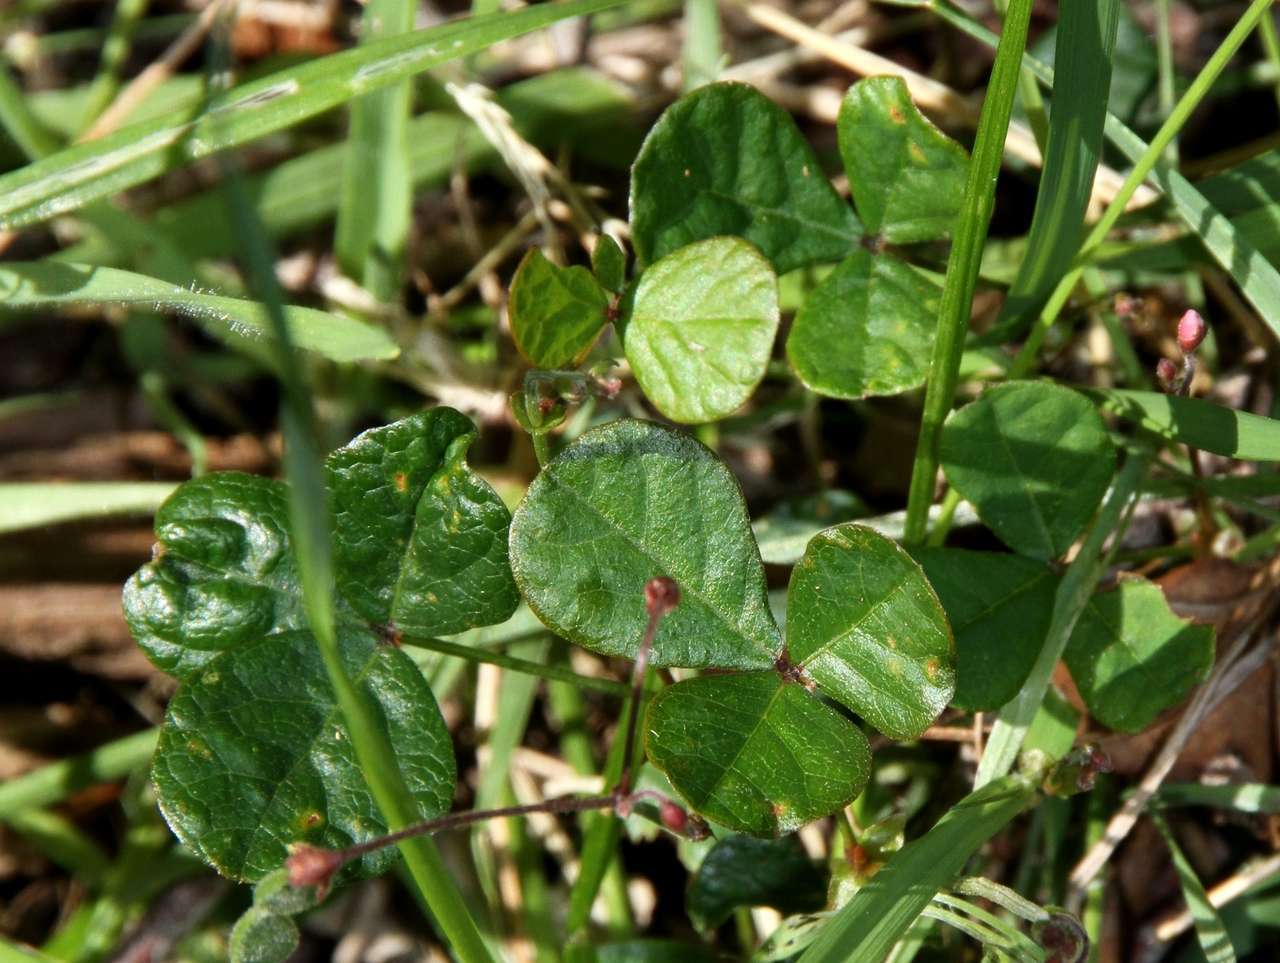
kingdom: Plantae
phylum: Tracheophyta
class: Magnoliopsida
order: Fabales
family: Fabaceae
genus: Pullenia
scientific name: Pullenia gunnii
